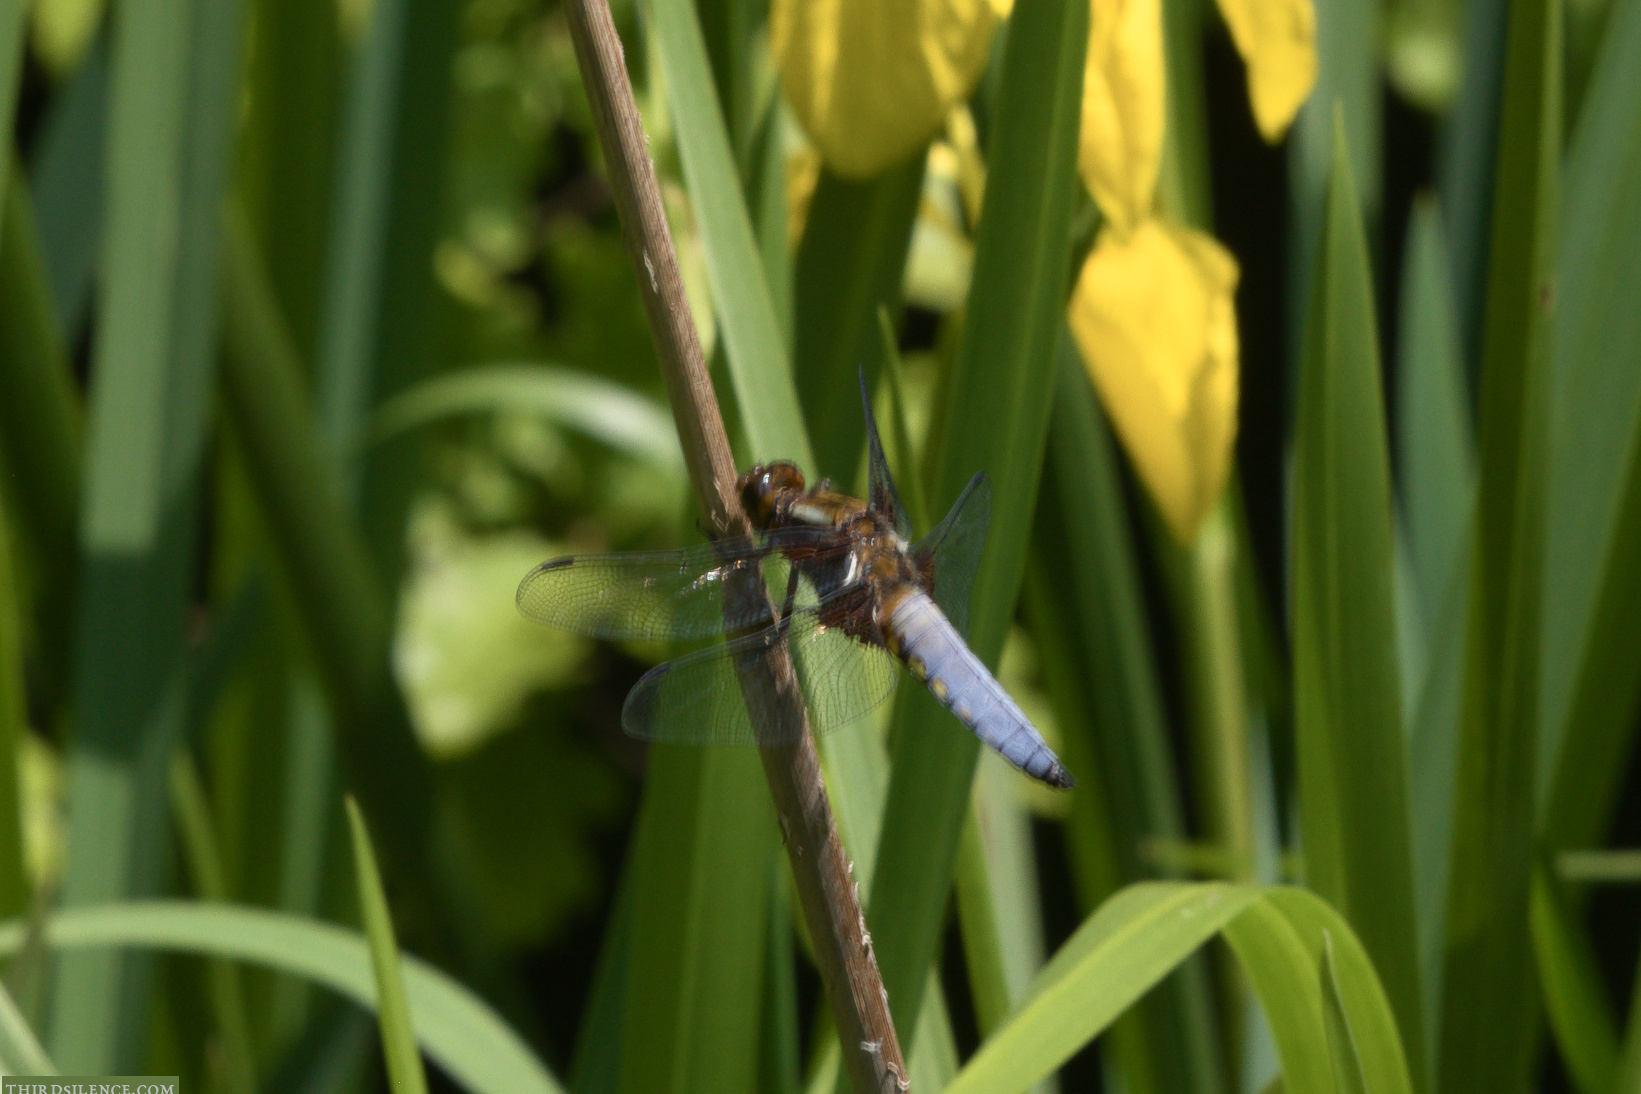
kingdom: Animalia
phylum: Arthropoda
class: Insecta
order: Odonata
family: Libellulidae
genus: Libellula
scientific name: Libellula depressa
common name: Broad-bodied chaser
